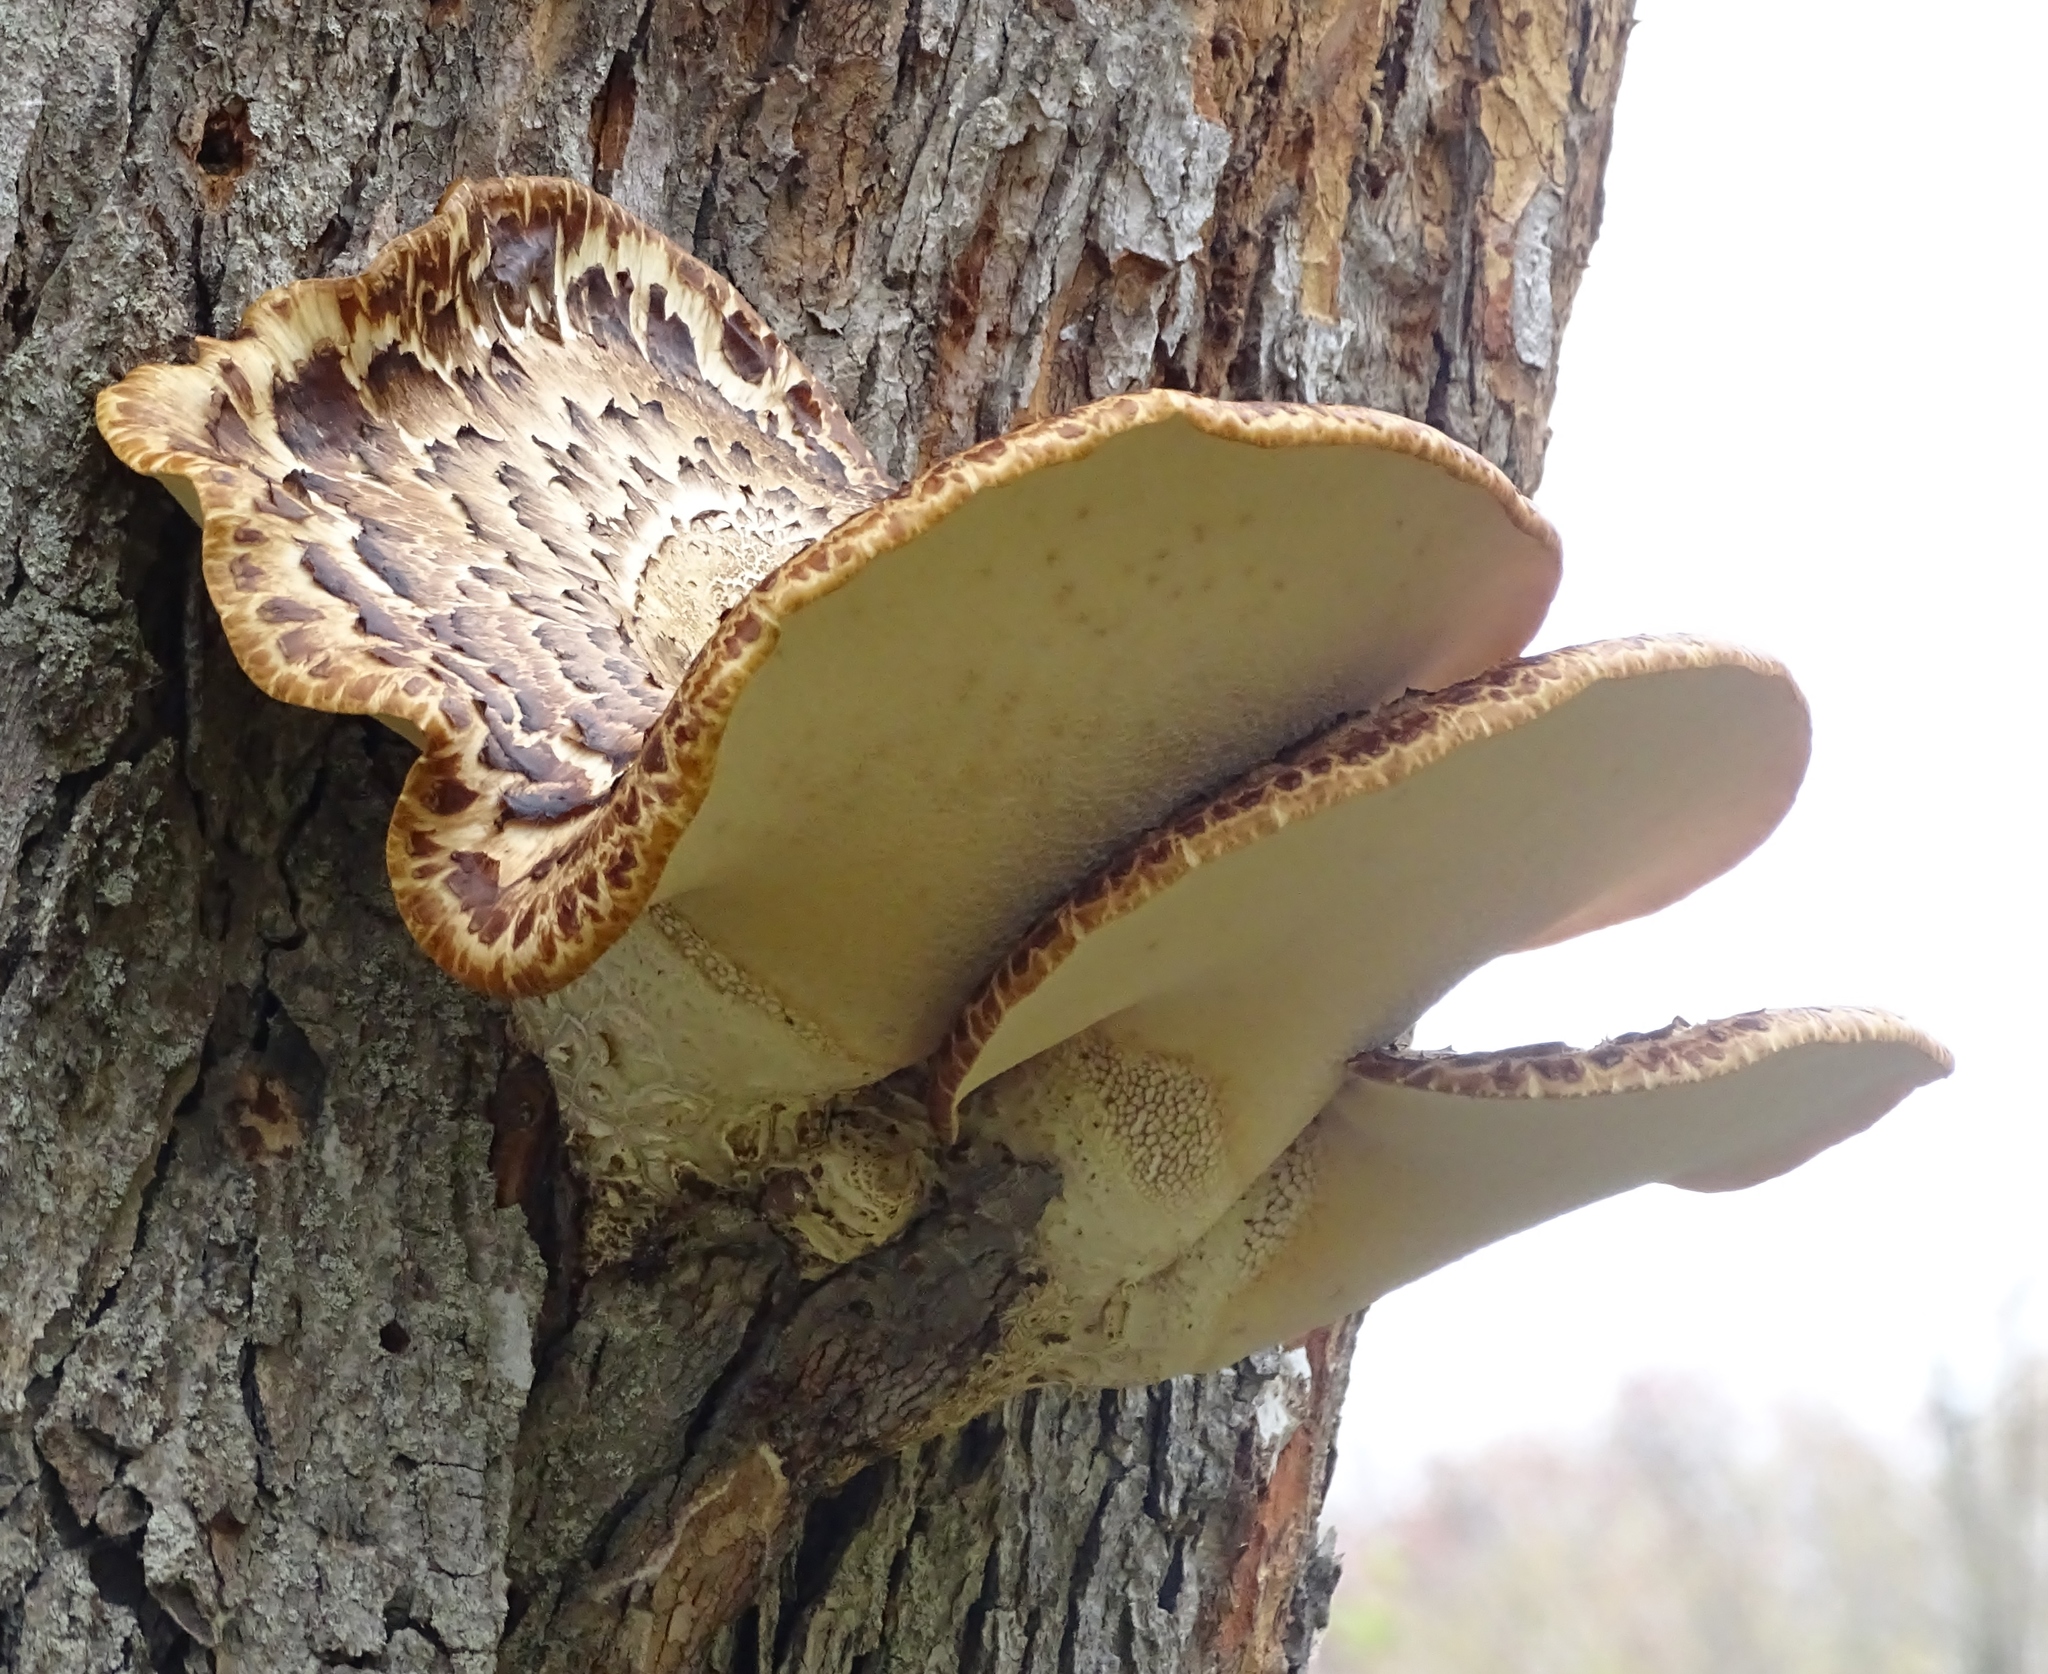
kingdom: Fungi
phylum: Basidiomycota
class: Agaricomycetes
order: Polyporales
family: Polyporaceae
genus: Cerioporus
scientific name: Cerioporus squamosus
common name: Dryad's saddle
